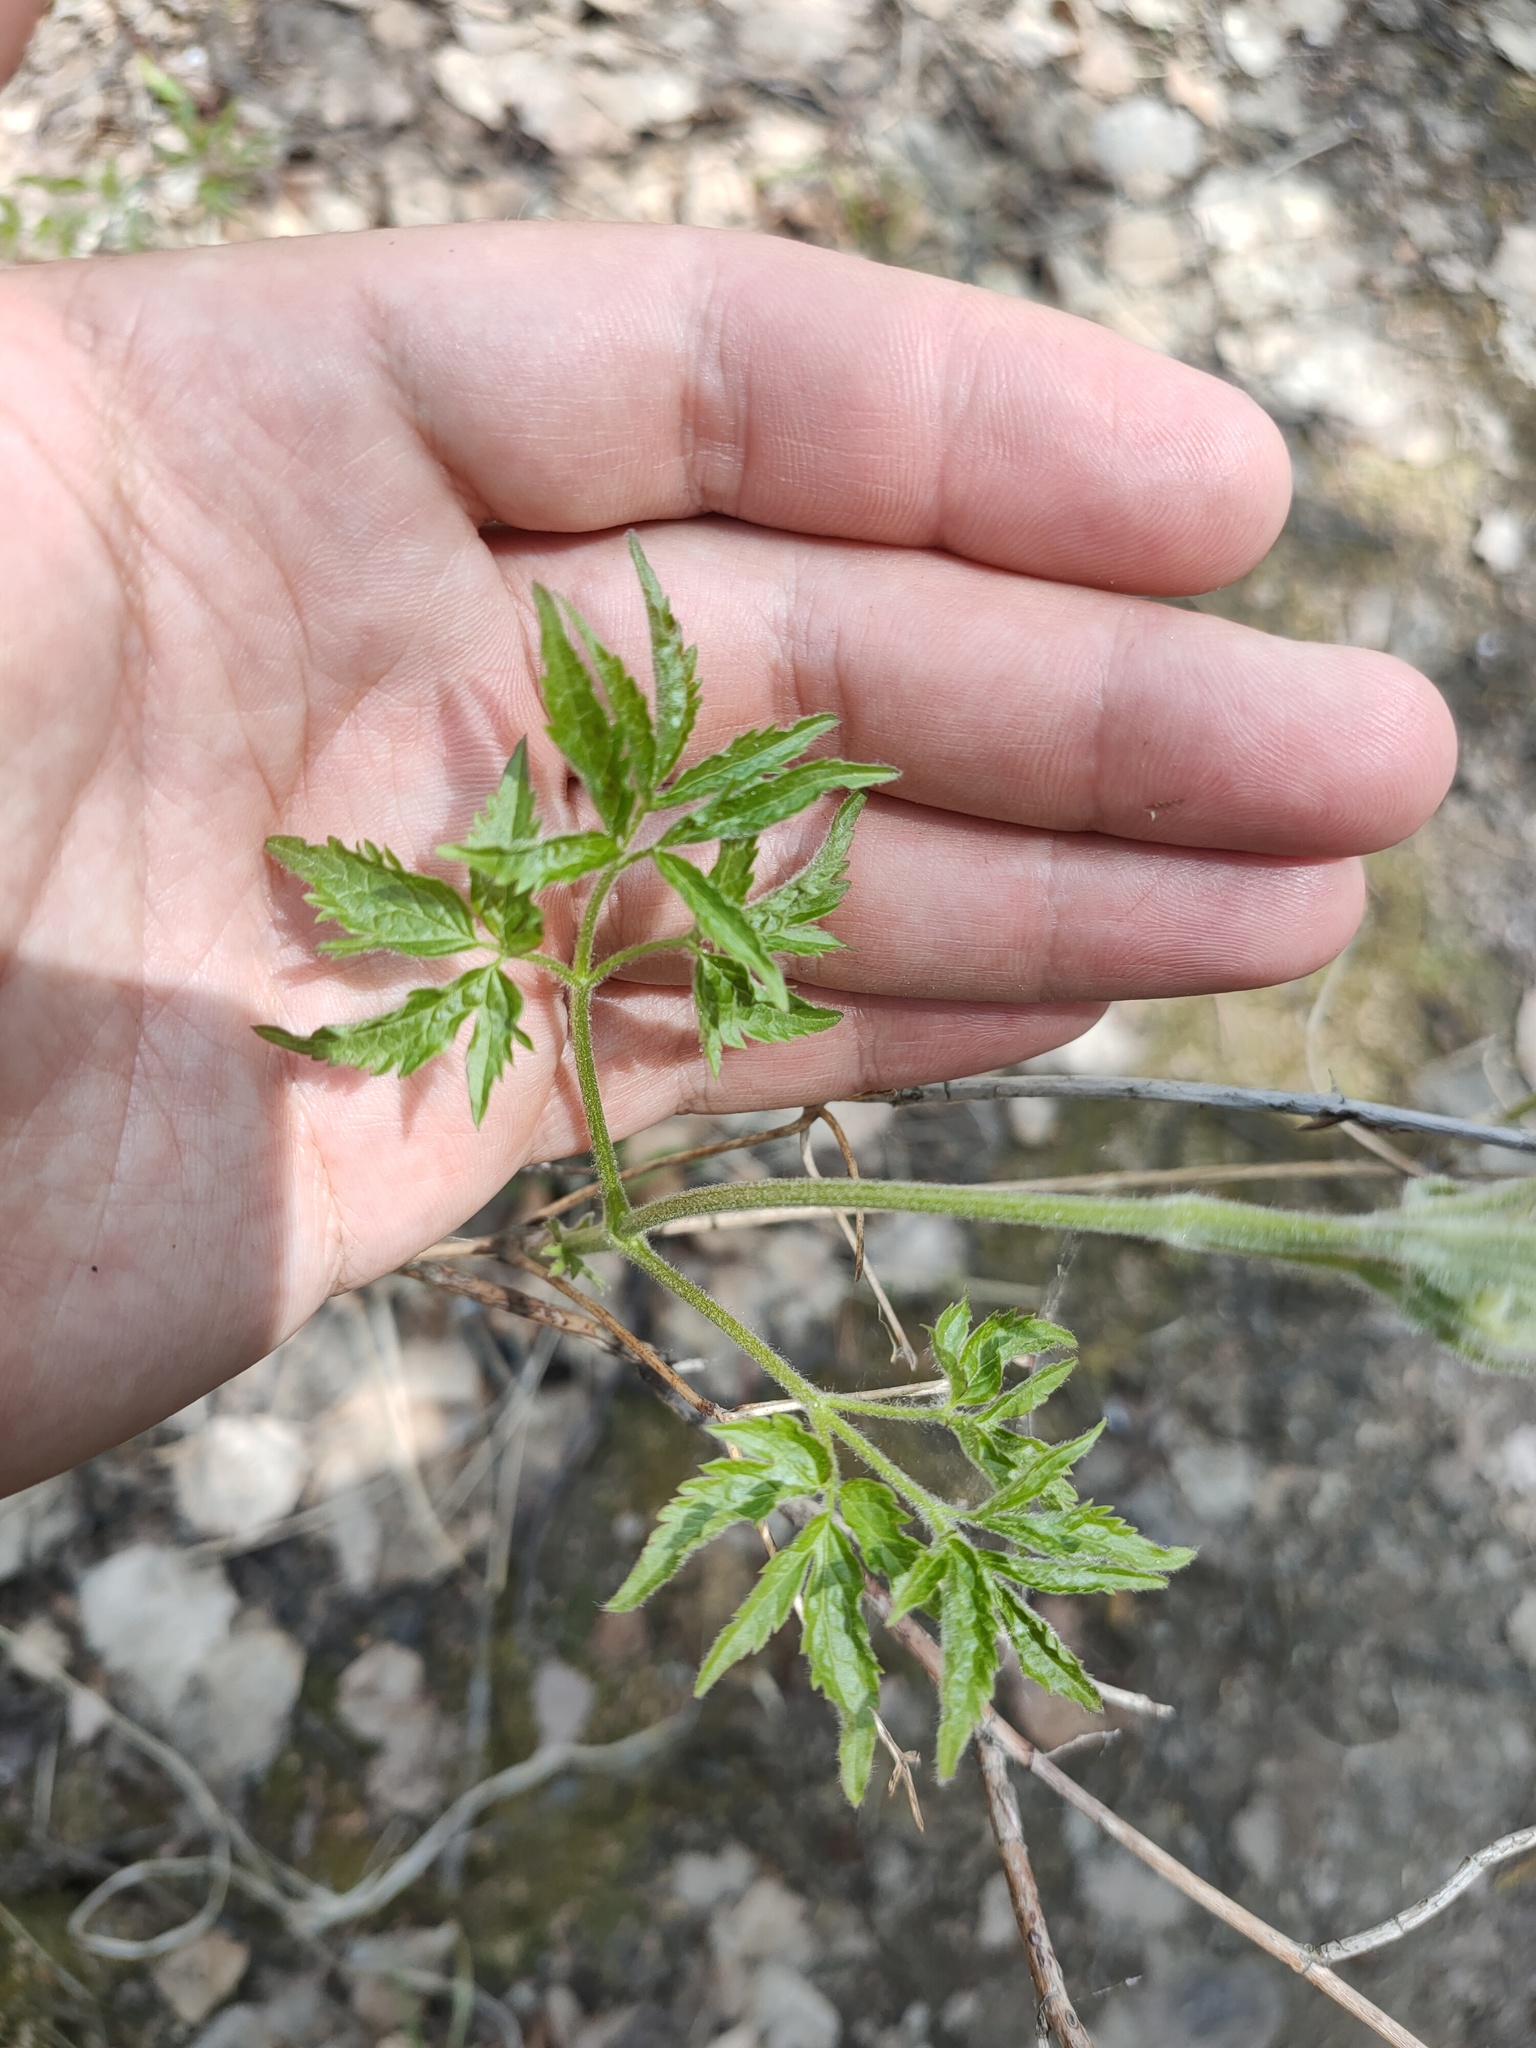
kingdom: Plantae
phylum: Tracheophyta
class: Magnoliopsida
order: Ranunculales
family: Ranunculaceae
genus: Clematis
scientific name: Clematis sibirica
